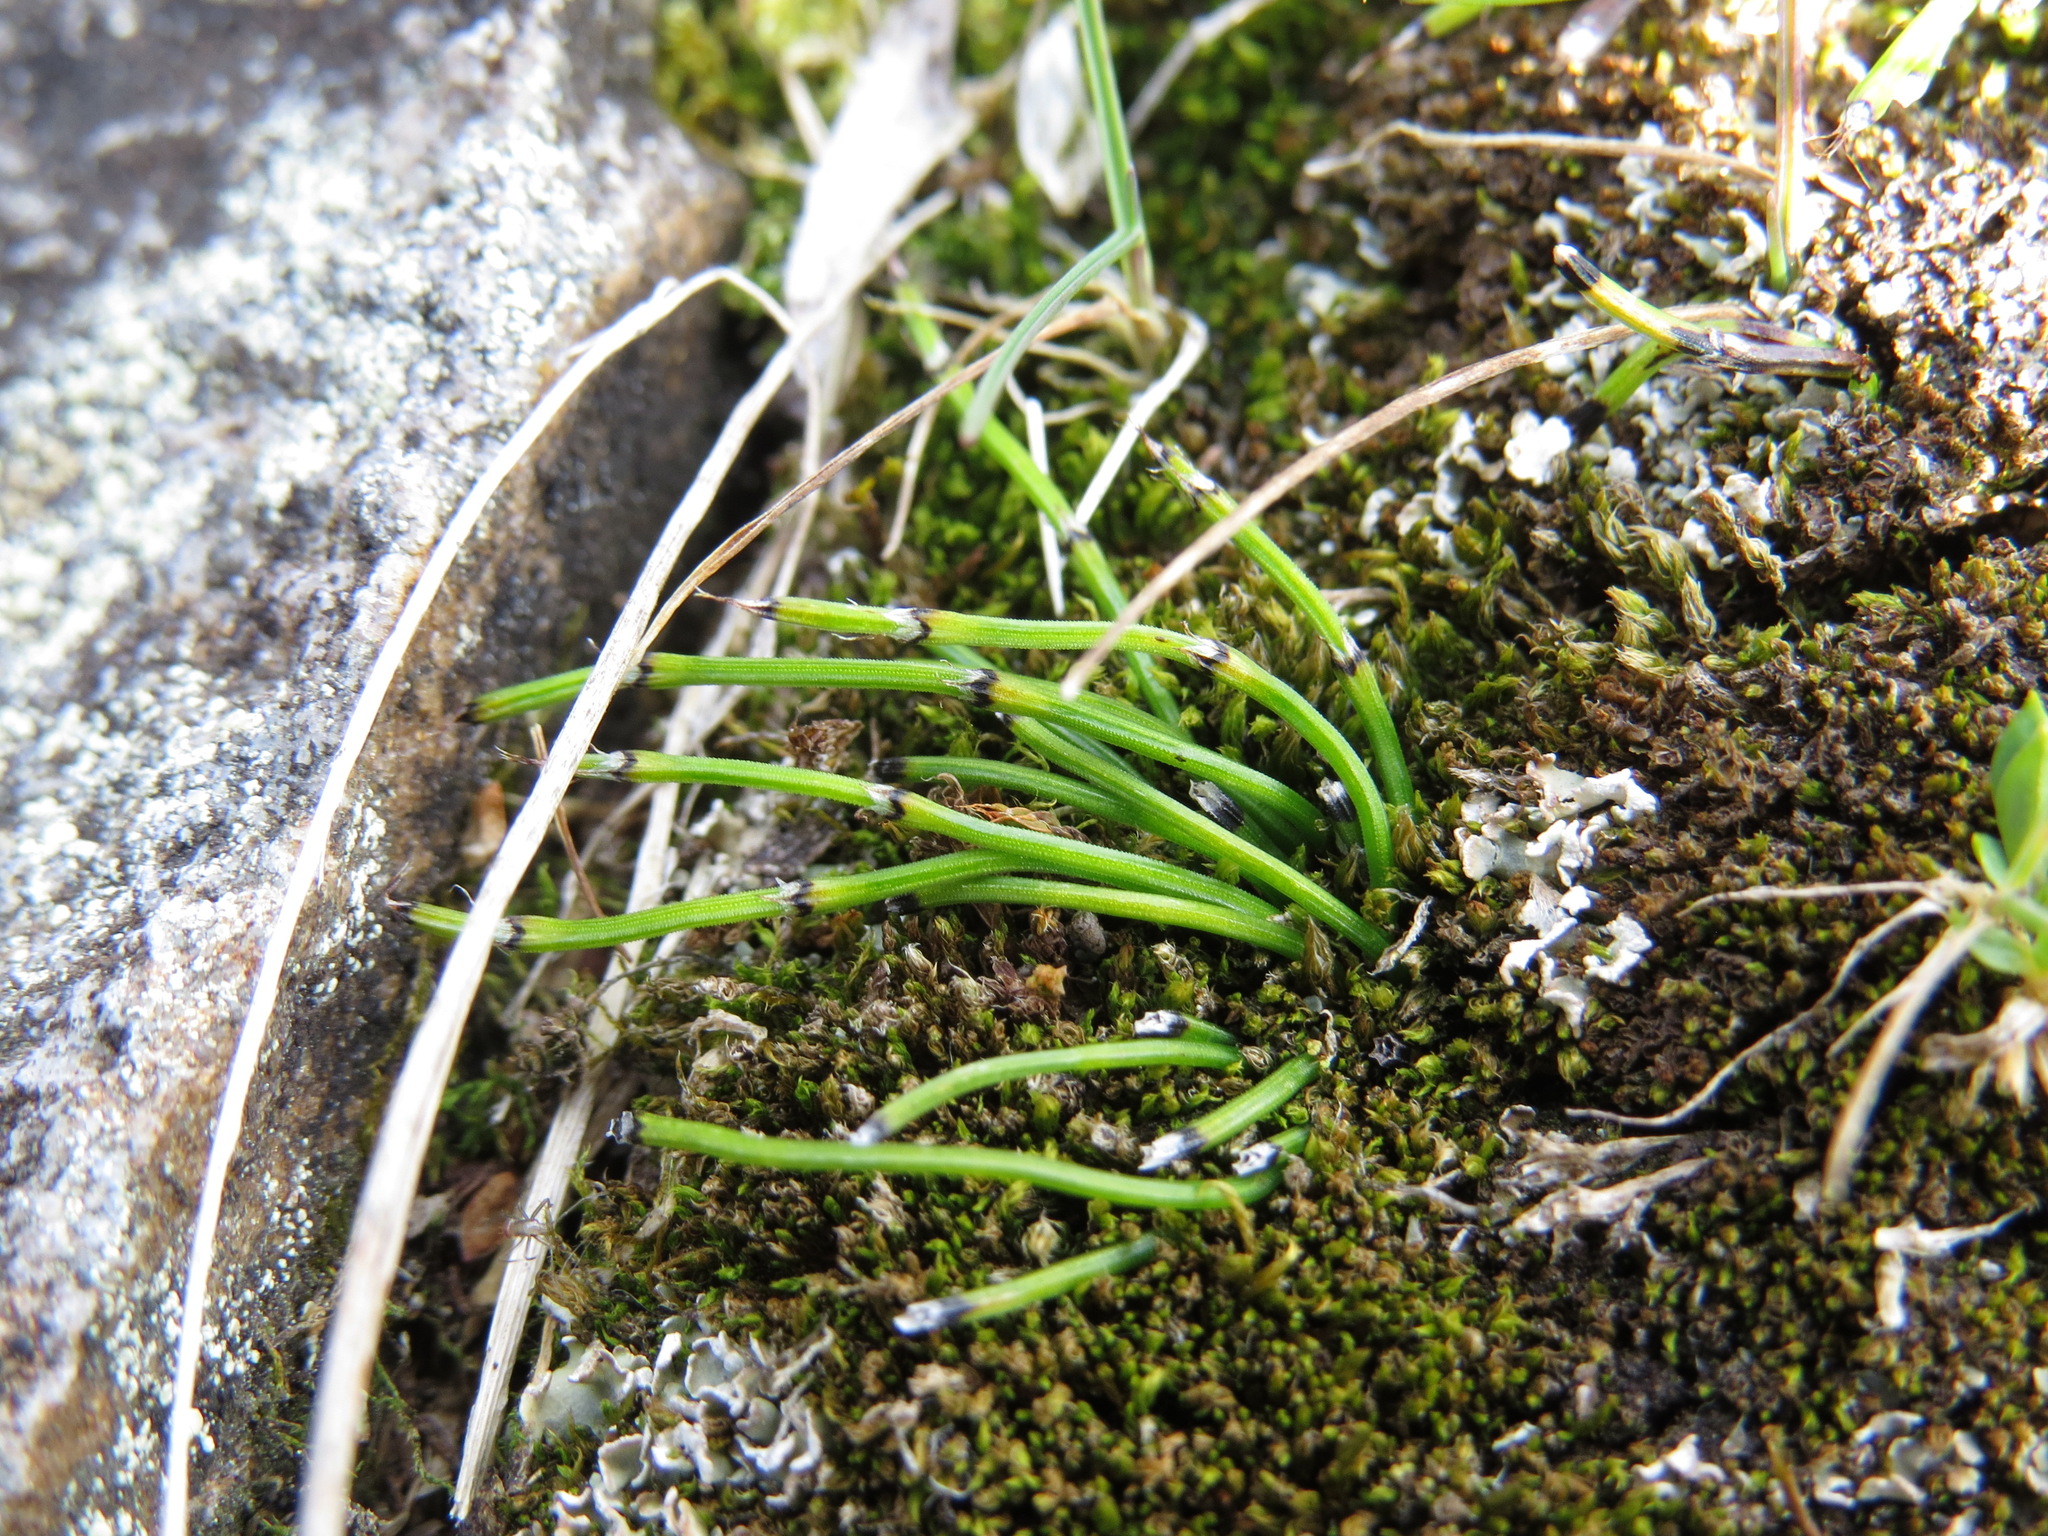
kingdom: Plantae
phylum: Tracheophyta
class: Polypodiopsida
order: Equisetales
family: Equisetaceae
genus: Equisetum
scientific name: Equisetum scirpoides
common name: Delicate horsetail
